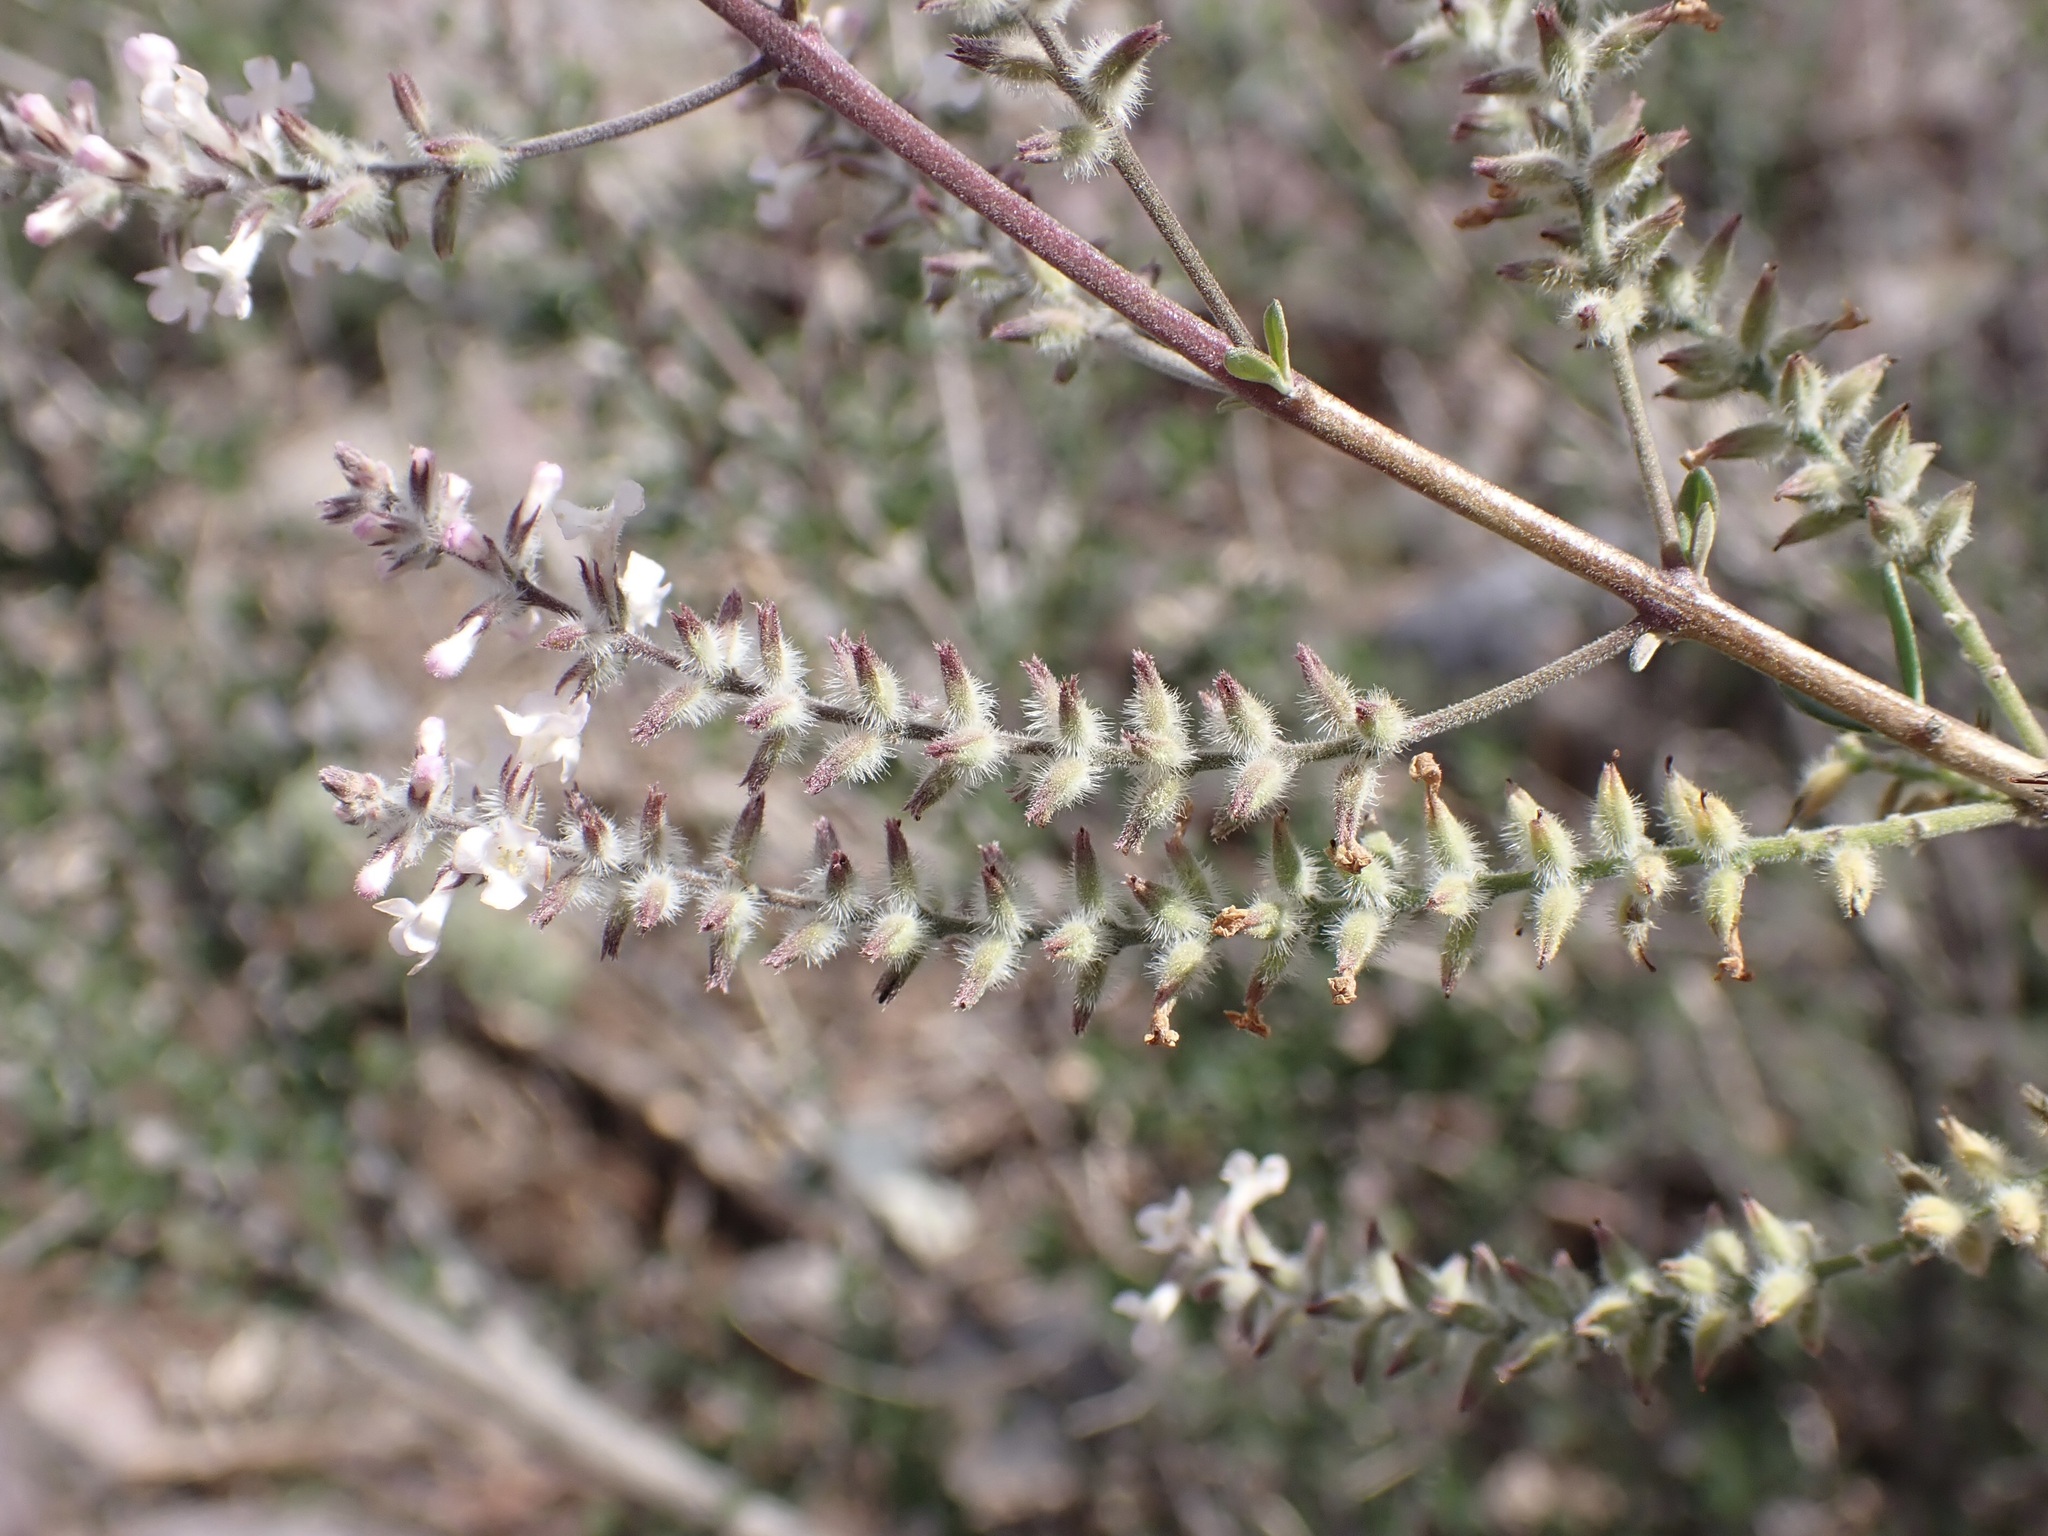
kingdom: Plantae
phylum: Tracheophyta
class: Magnoliopsida
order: Lamiales
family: Verbenaceae
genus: Aloysia
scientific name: Aloysia gratissima
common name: Common bee-brush
